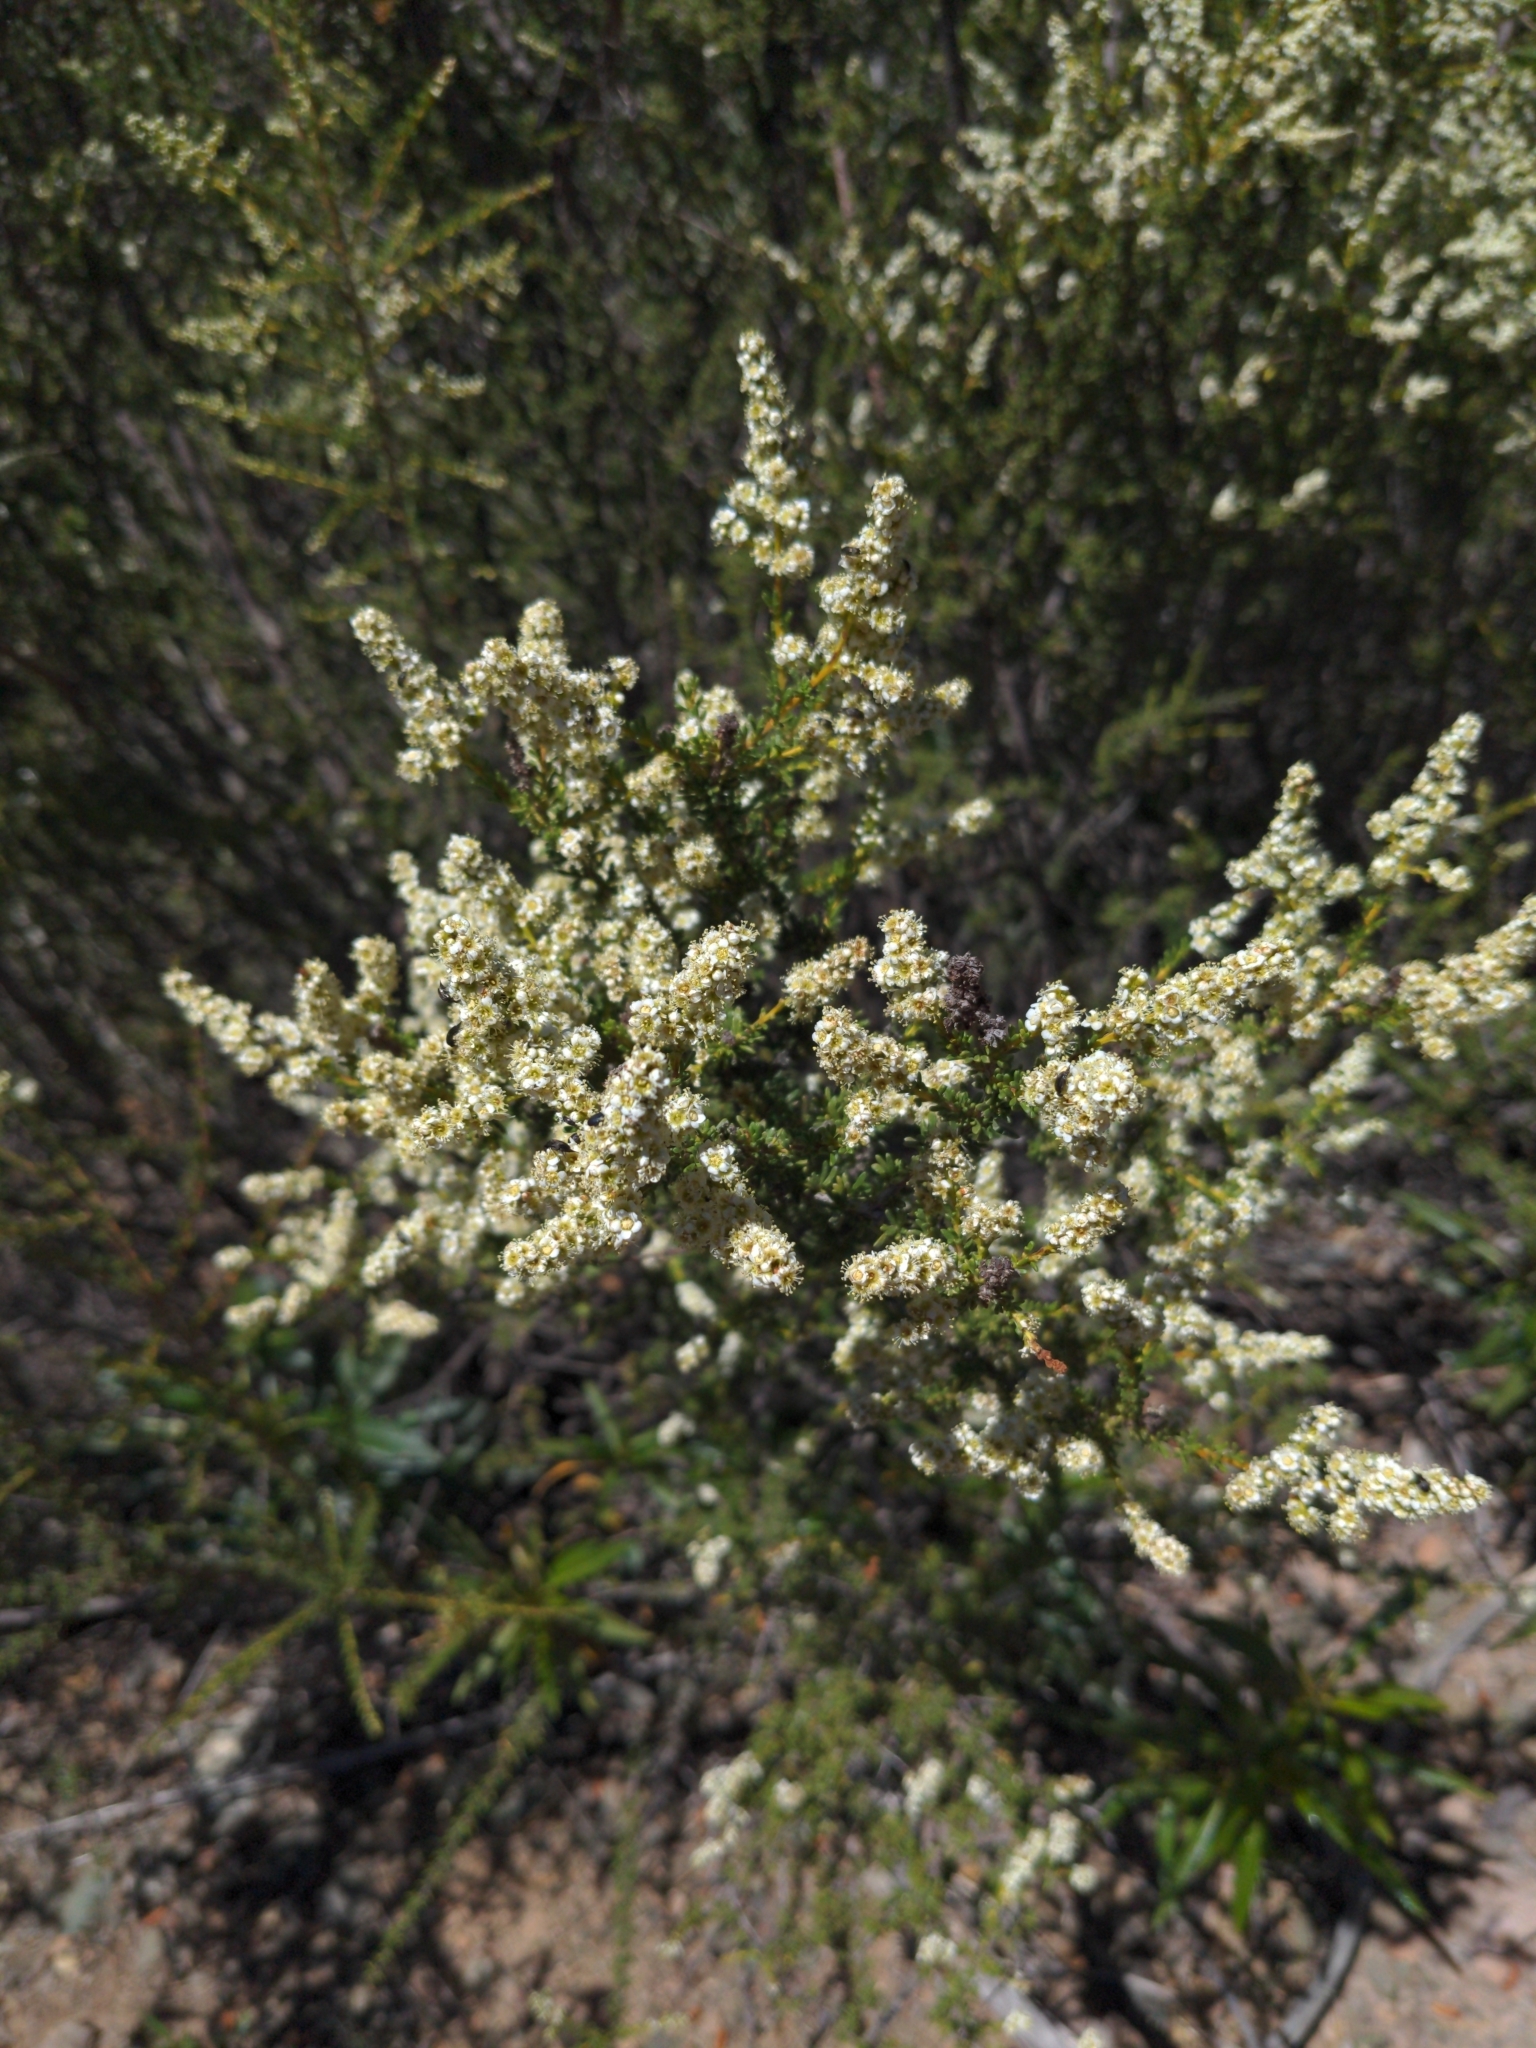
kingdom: Plantae
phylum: Tracheophyta
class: Magnoliopsida
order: Rosales
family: Rosaceae
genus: Adenostoma
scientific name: Adenostoma fasciculatum
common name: Chamise
